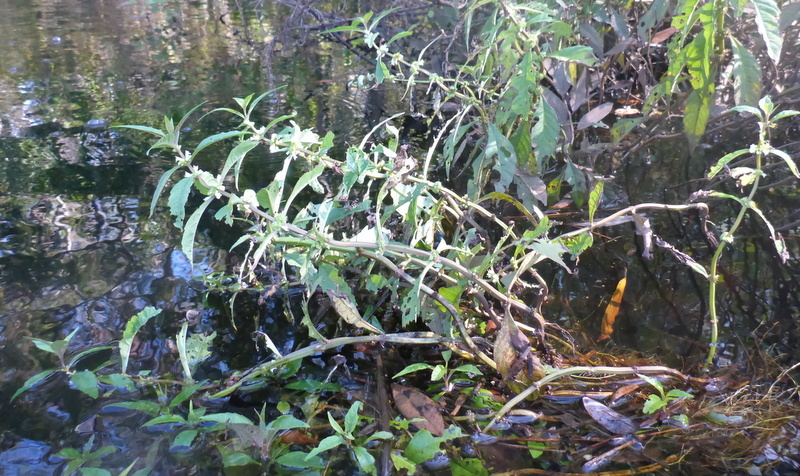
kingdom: Plantae
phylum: Tracheophyta
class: Magnoliopsida
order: Lamiales
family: Lamiaceae
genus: Lycopus
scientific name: Lycopus rubellus
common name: Stalked bugleweed
